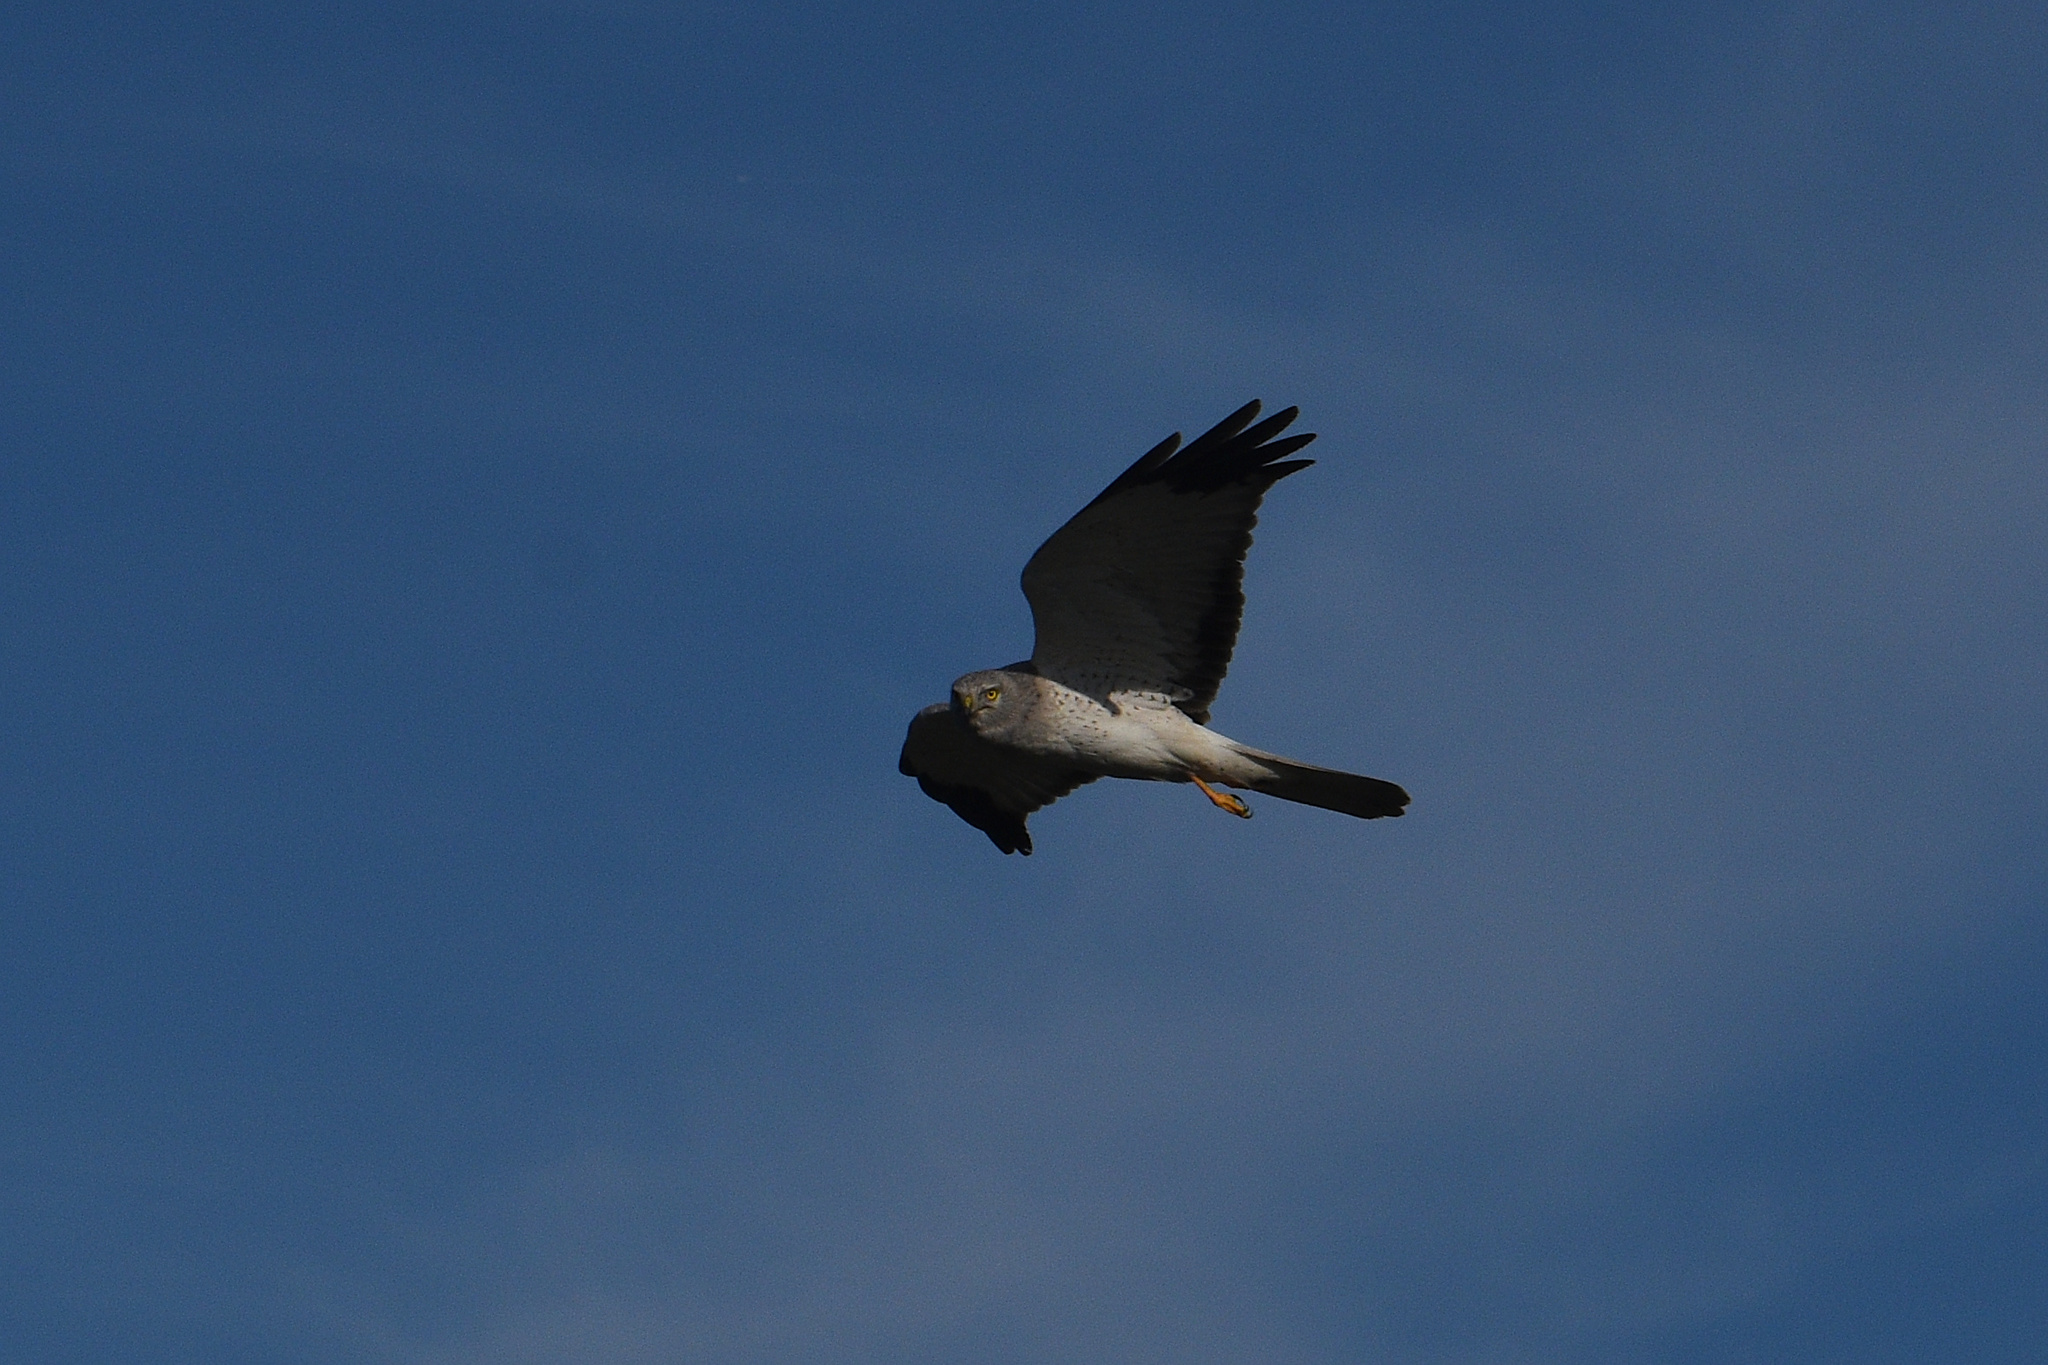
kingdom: Animalia
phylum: Chordata
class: Aves
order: Accipitriformes
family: Accipitridae
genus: Circus
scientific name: Circus cyaneus
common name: Hen harrier
